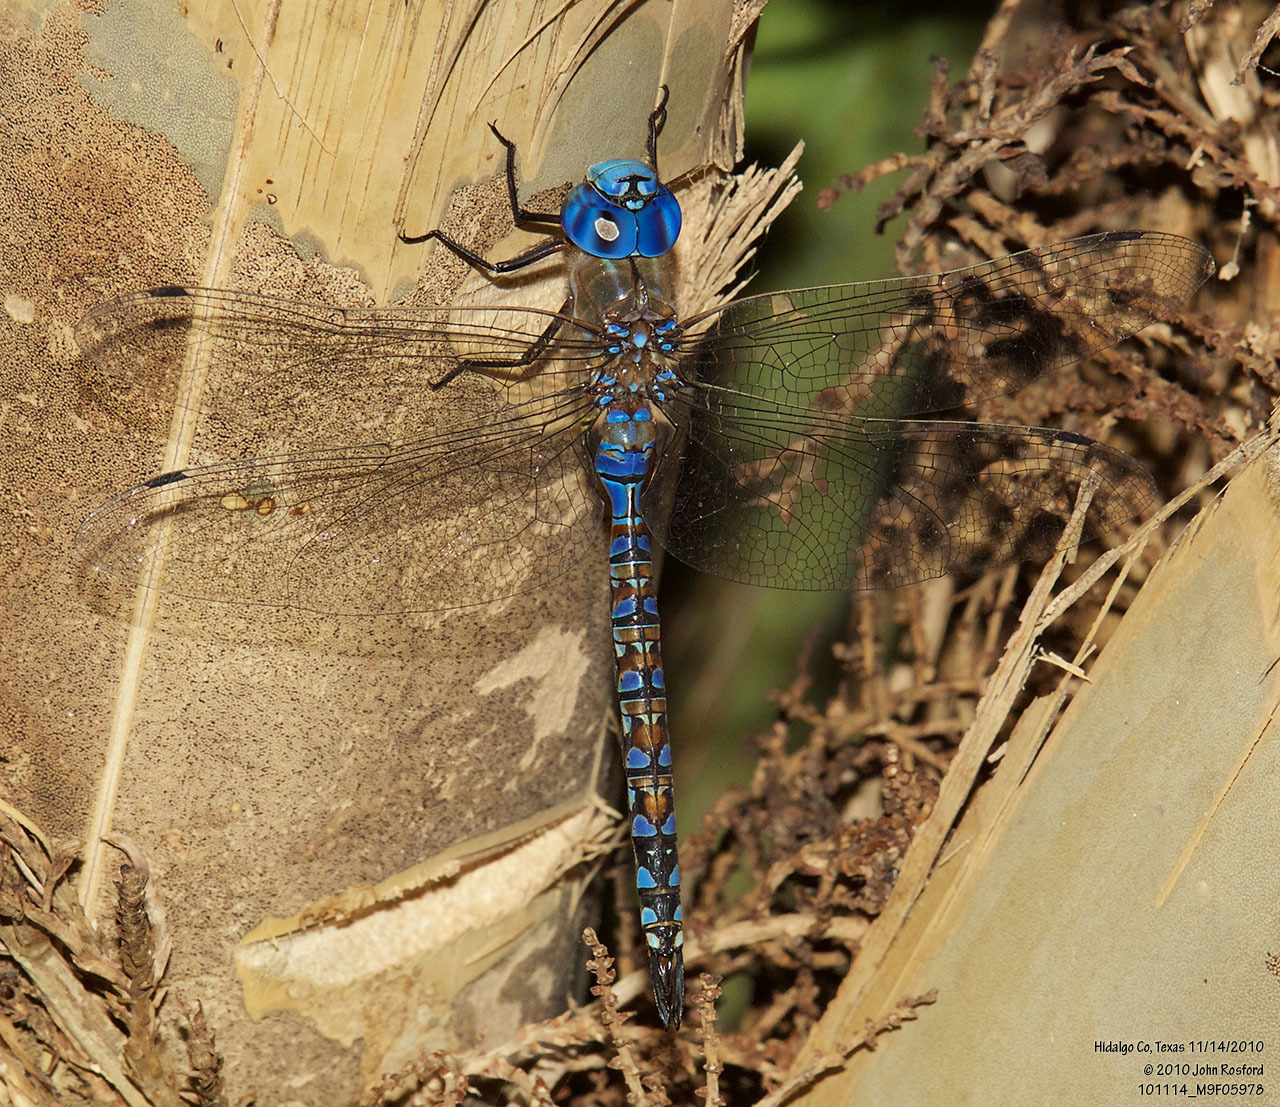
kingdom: Animalia
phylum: Arthropoda
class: Insecta
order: Odonata
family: Aeshnidae
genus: Rhionaeschna
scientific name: Rhionaeschna multicolor
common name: Blue-eyed darner
